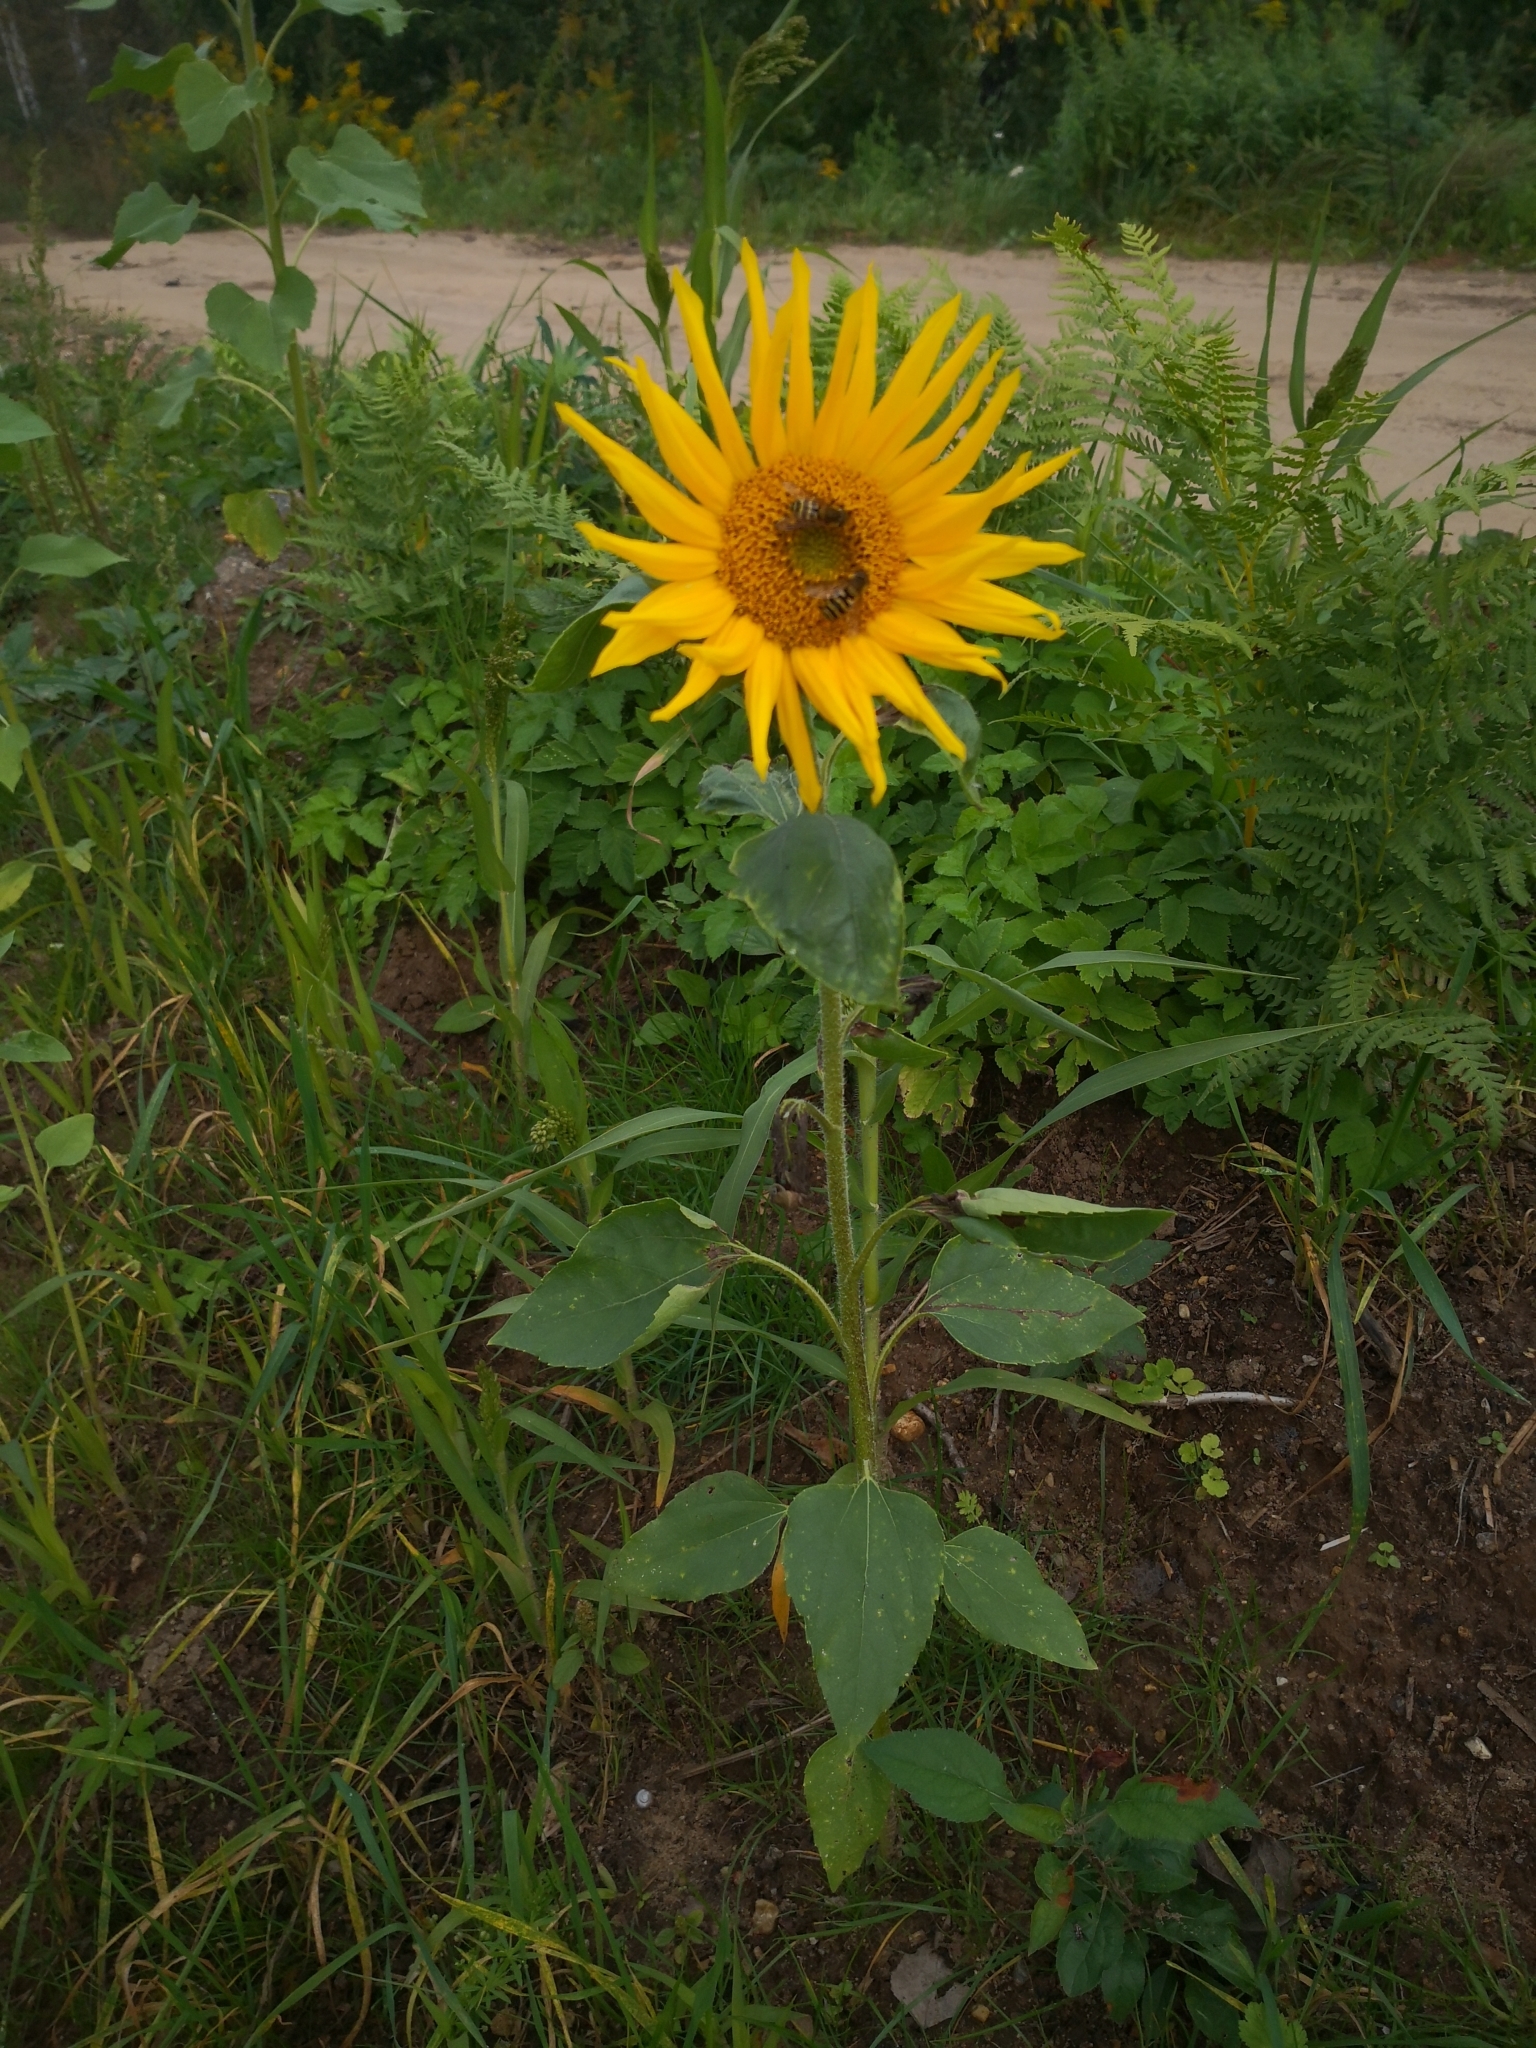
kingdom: Plantae
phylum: Tracheophyta
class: Magnoliopsida
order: Asterales
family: Asteraceae
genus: Helianthus
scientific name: Helianthus annuus
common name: Sunflower
